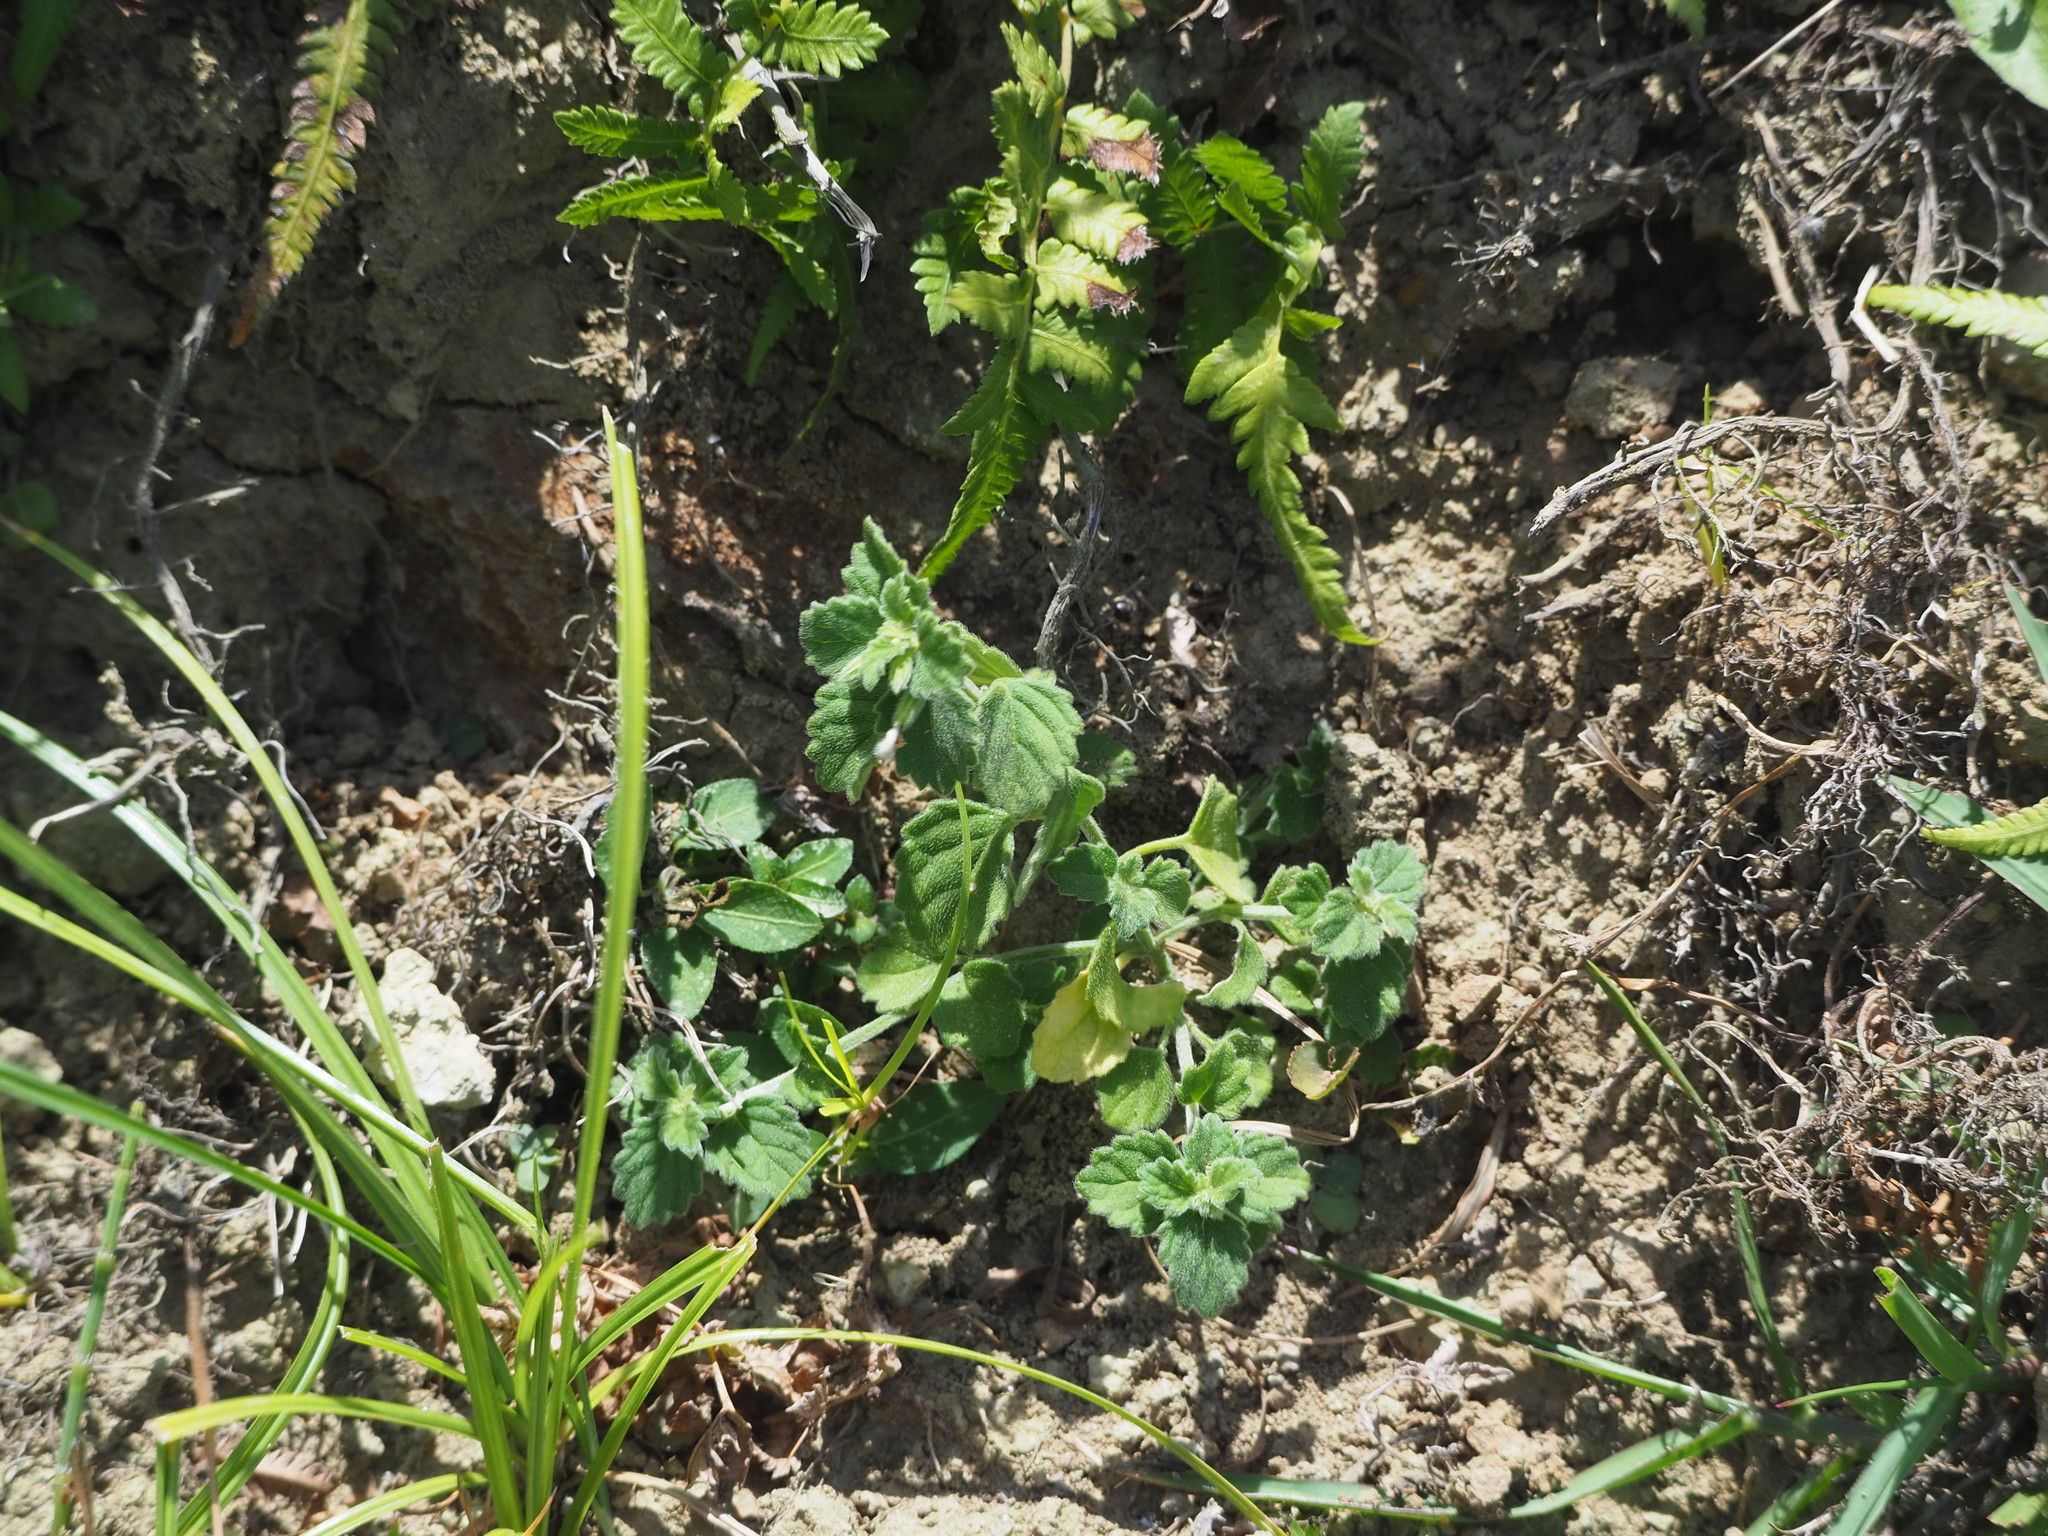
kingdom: Plantae
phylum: Tracheophyta
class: Magnoliopsida
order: Lamiales
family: Lamiaceae
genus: Leucas
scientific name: Leucas chinensis
